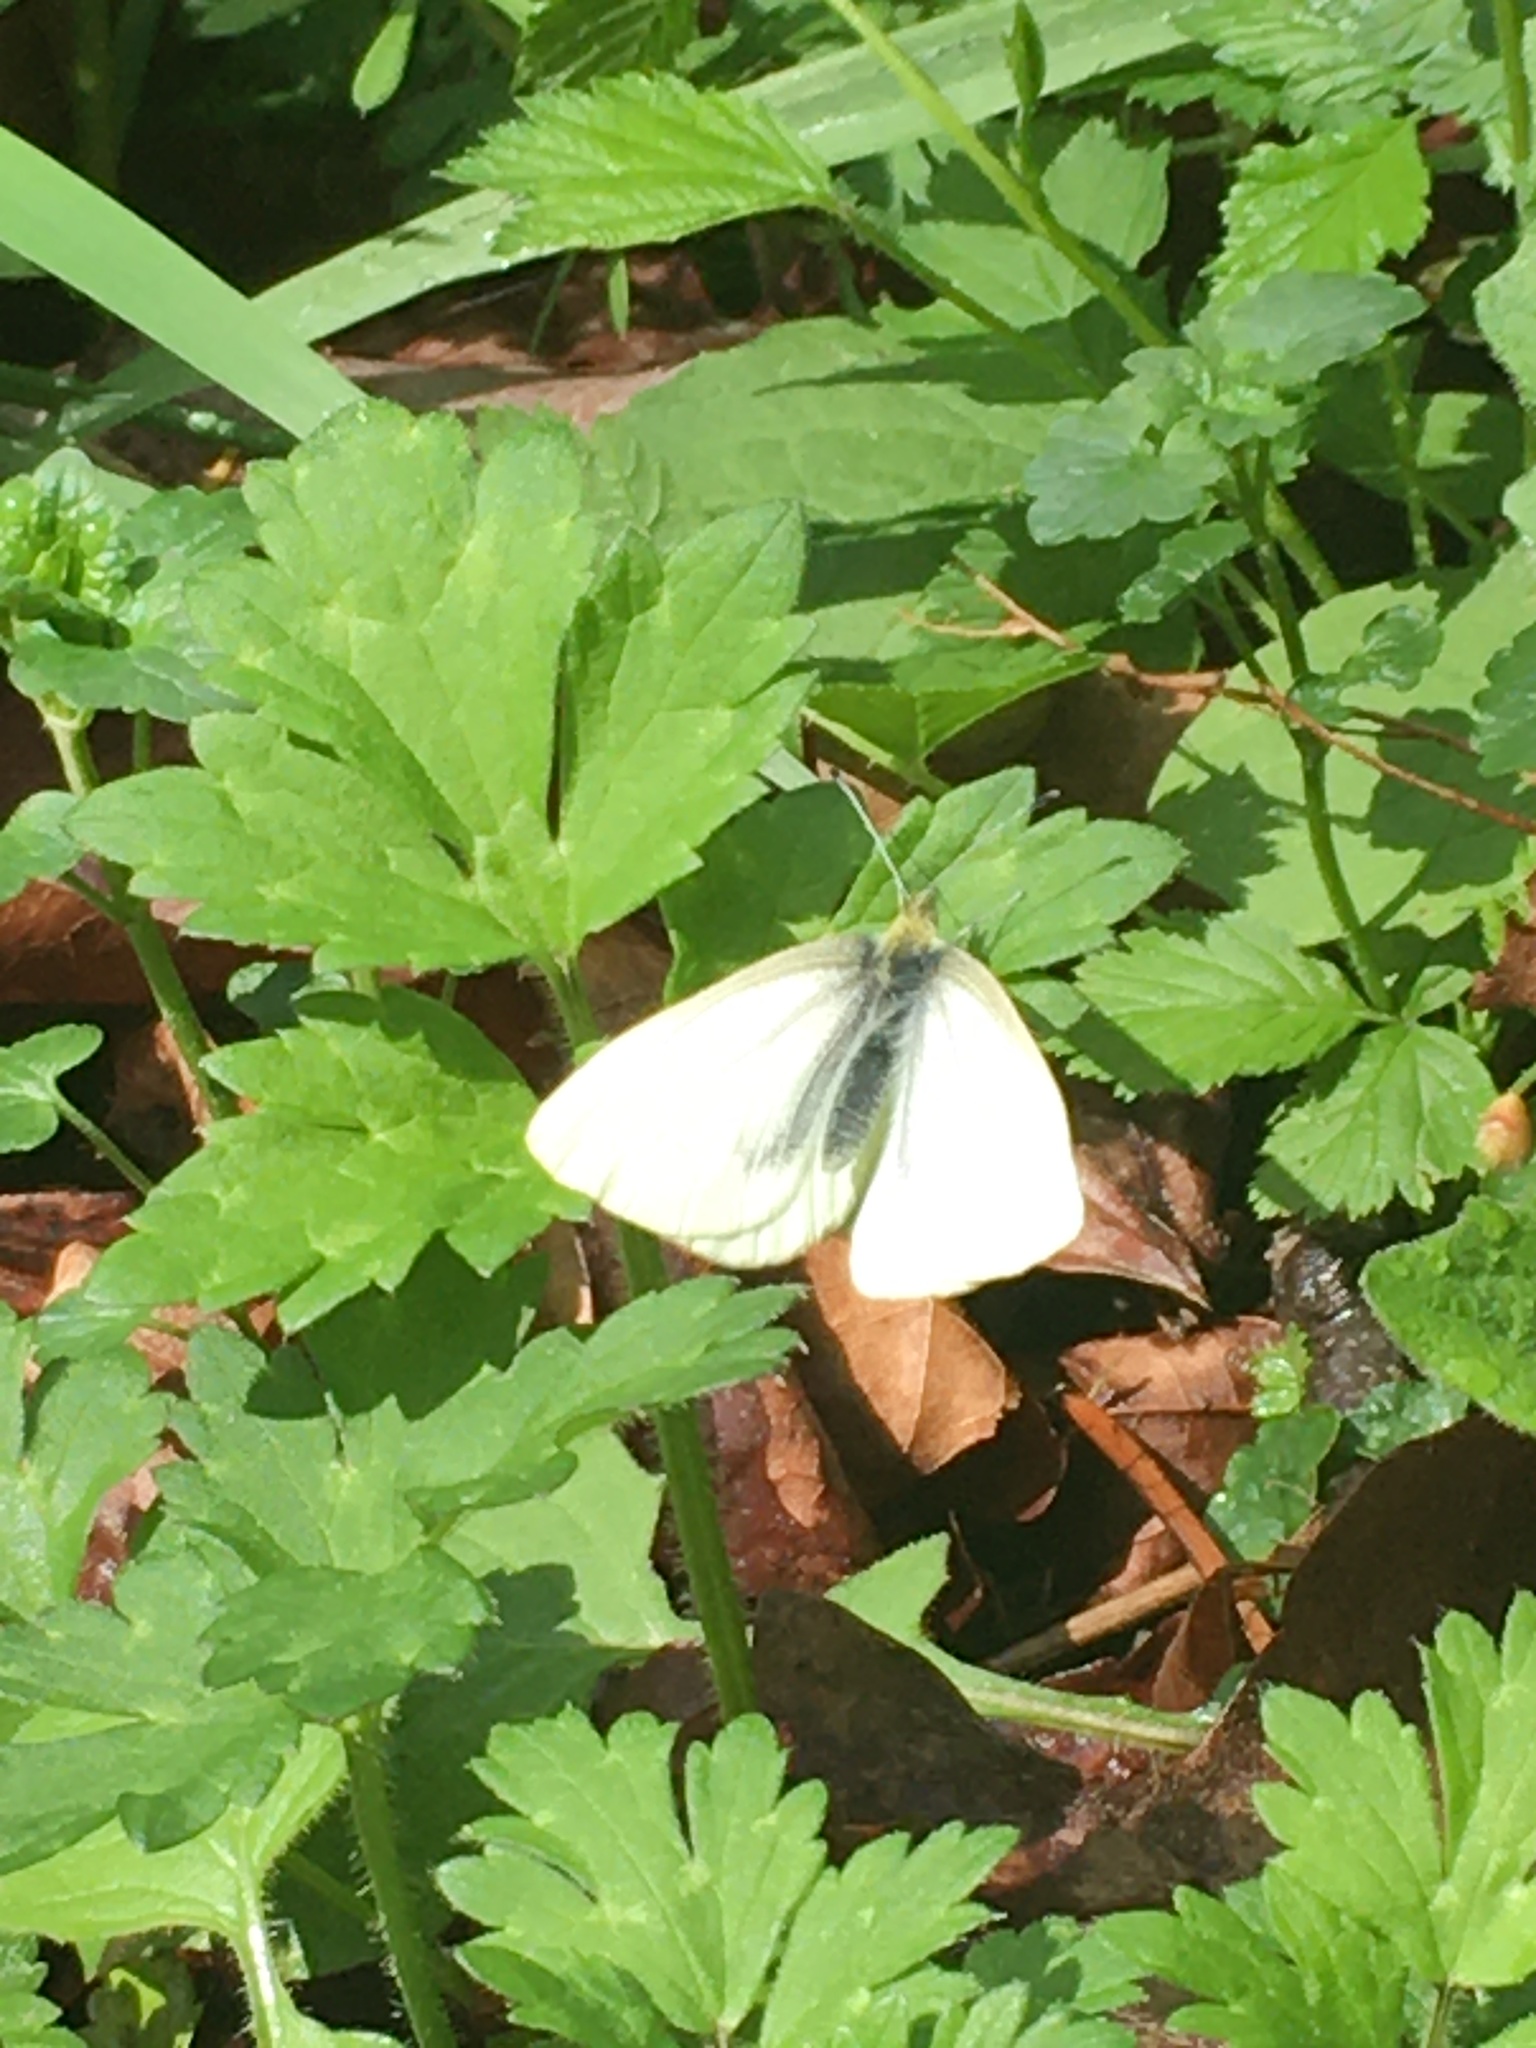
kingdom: Animalia
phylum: Arthropoda
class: Insecta
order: Lepidoptera
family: Pieridae
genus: Pieris
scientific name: Pieris marginalis
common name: Margined white
